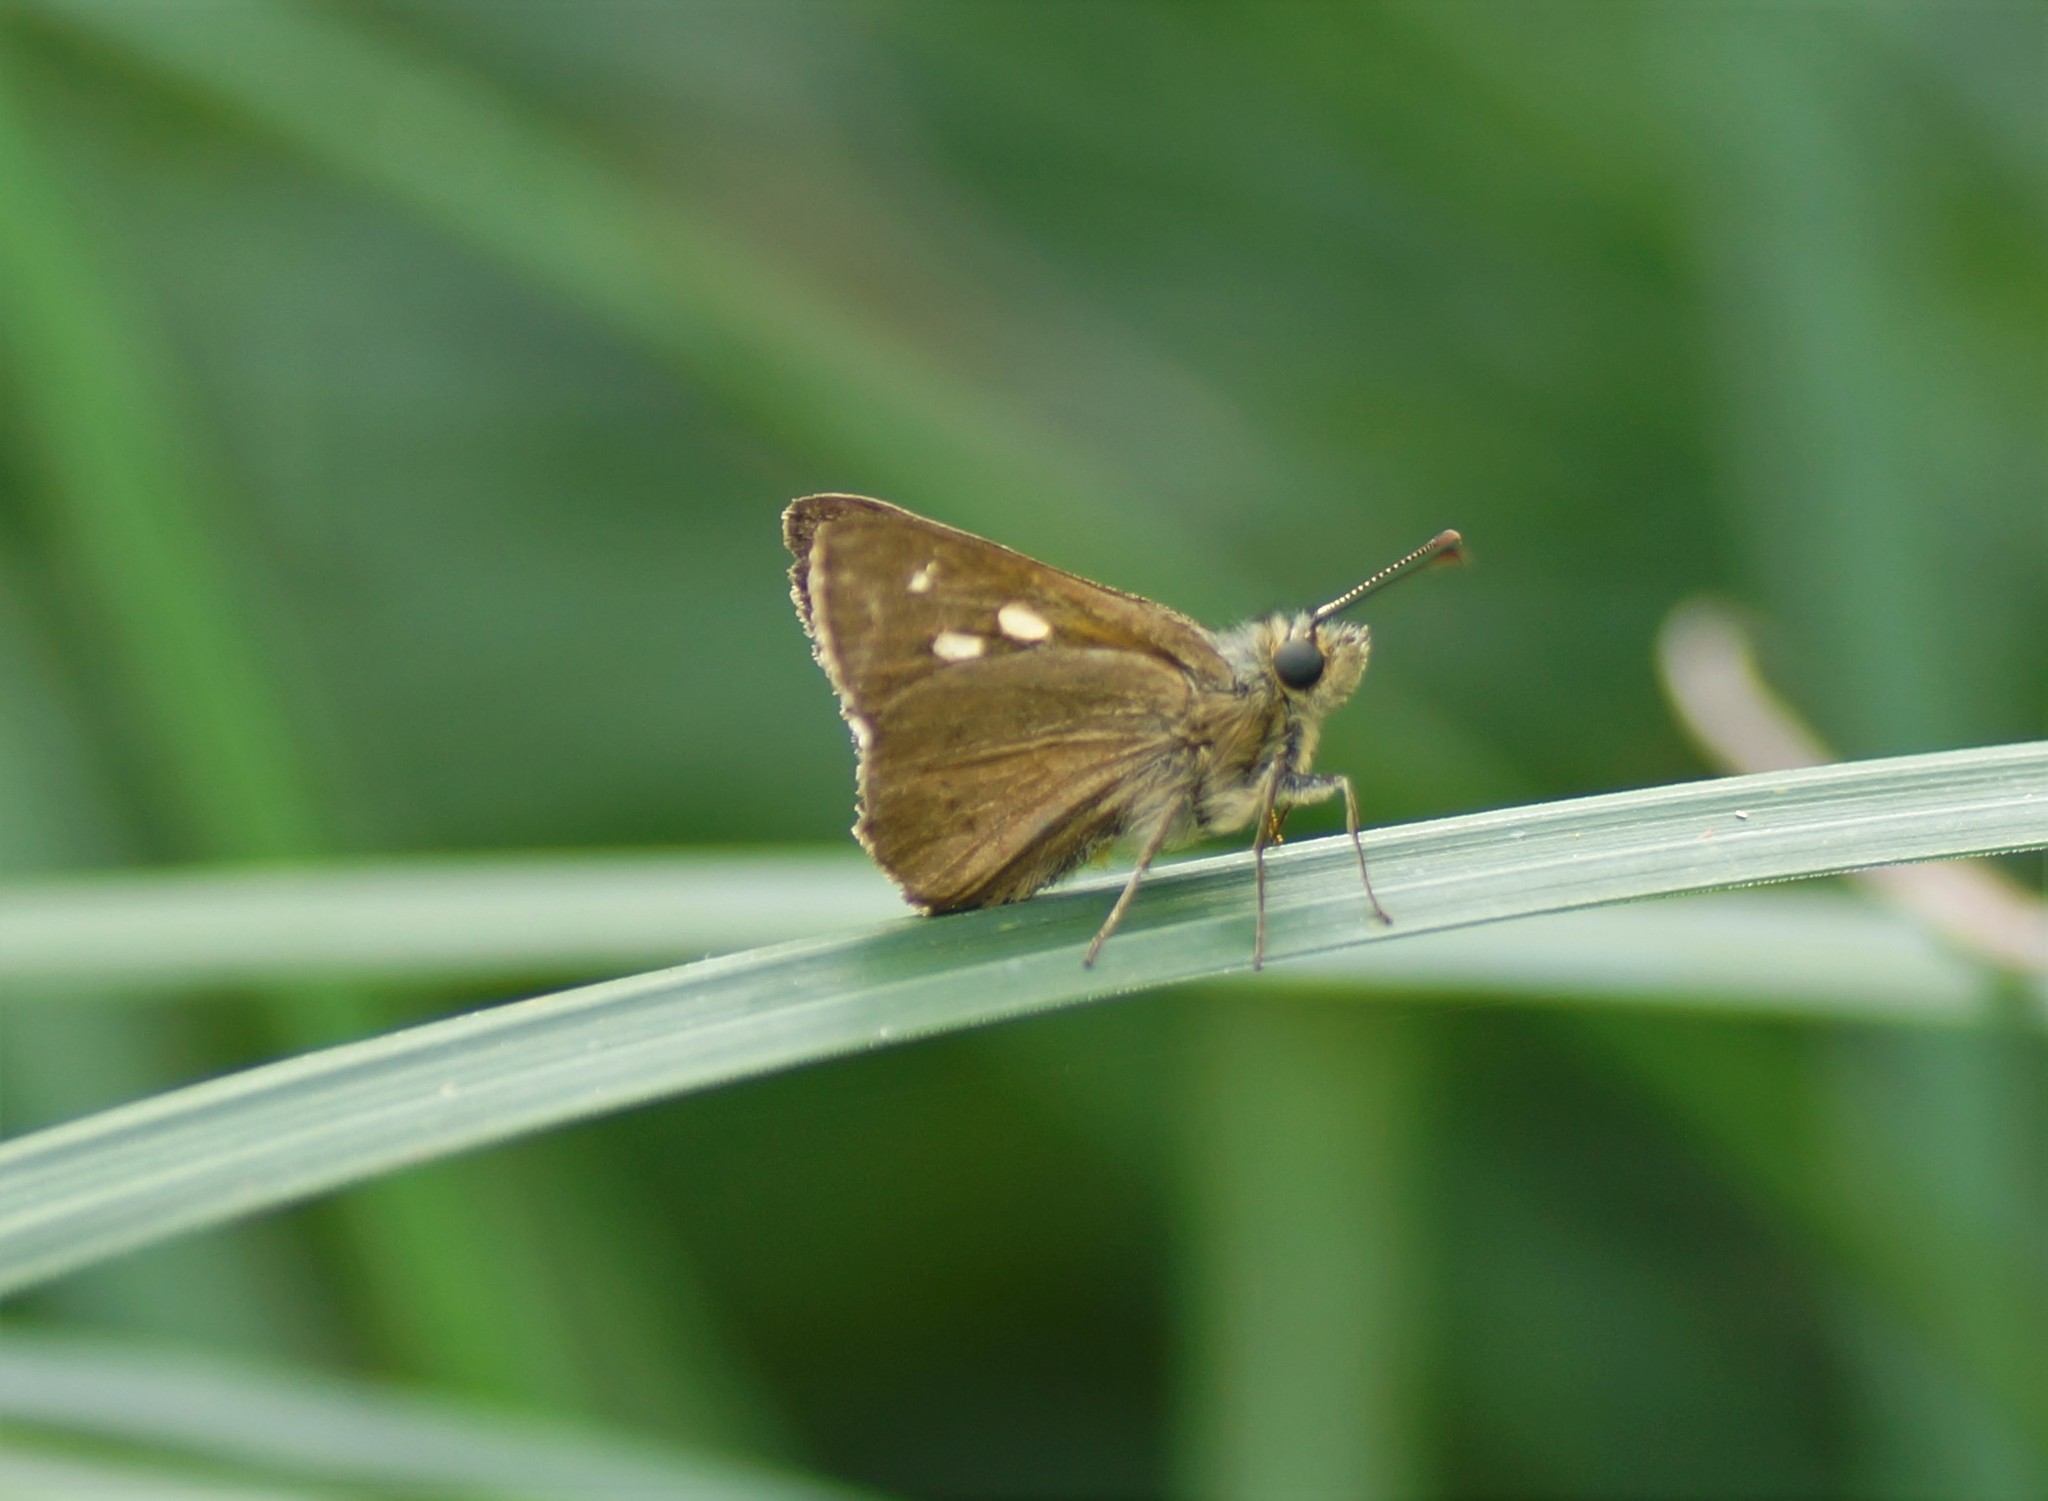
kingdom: Animalia
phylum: Arthropoda
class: Insecta
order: Lepidoptera
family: Hesperiidae
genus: Toxidia
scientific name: Toxidia
